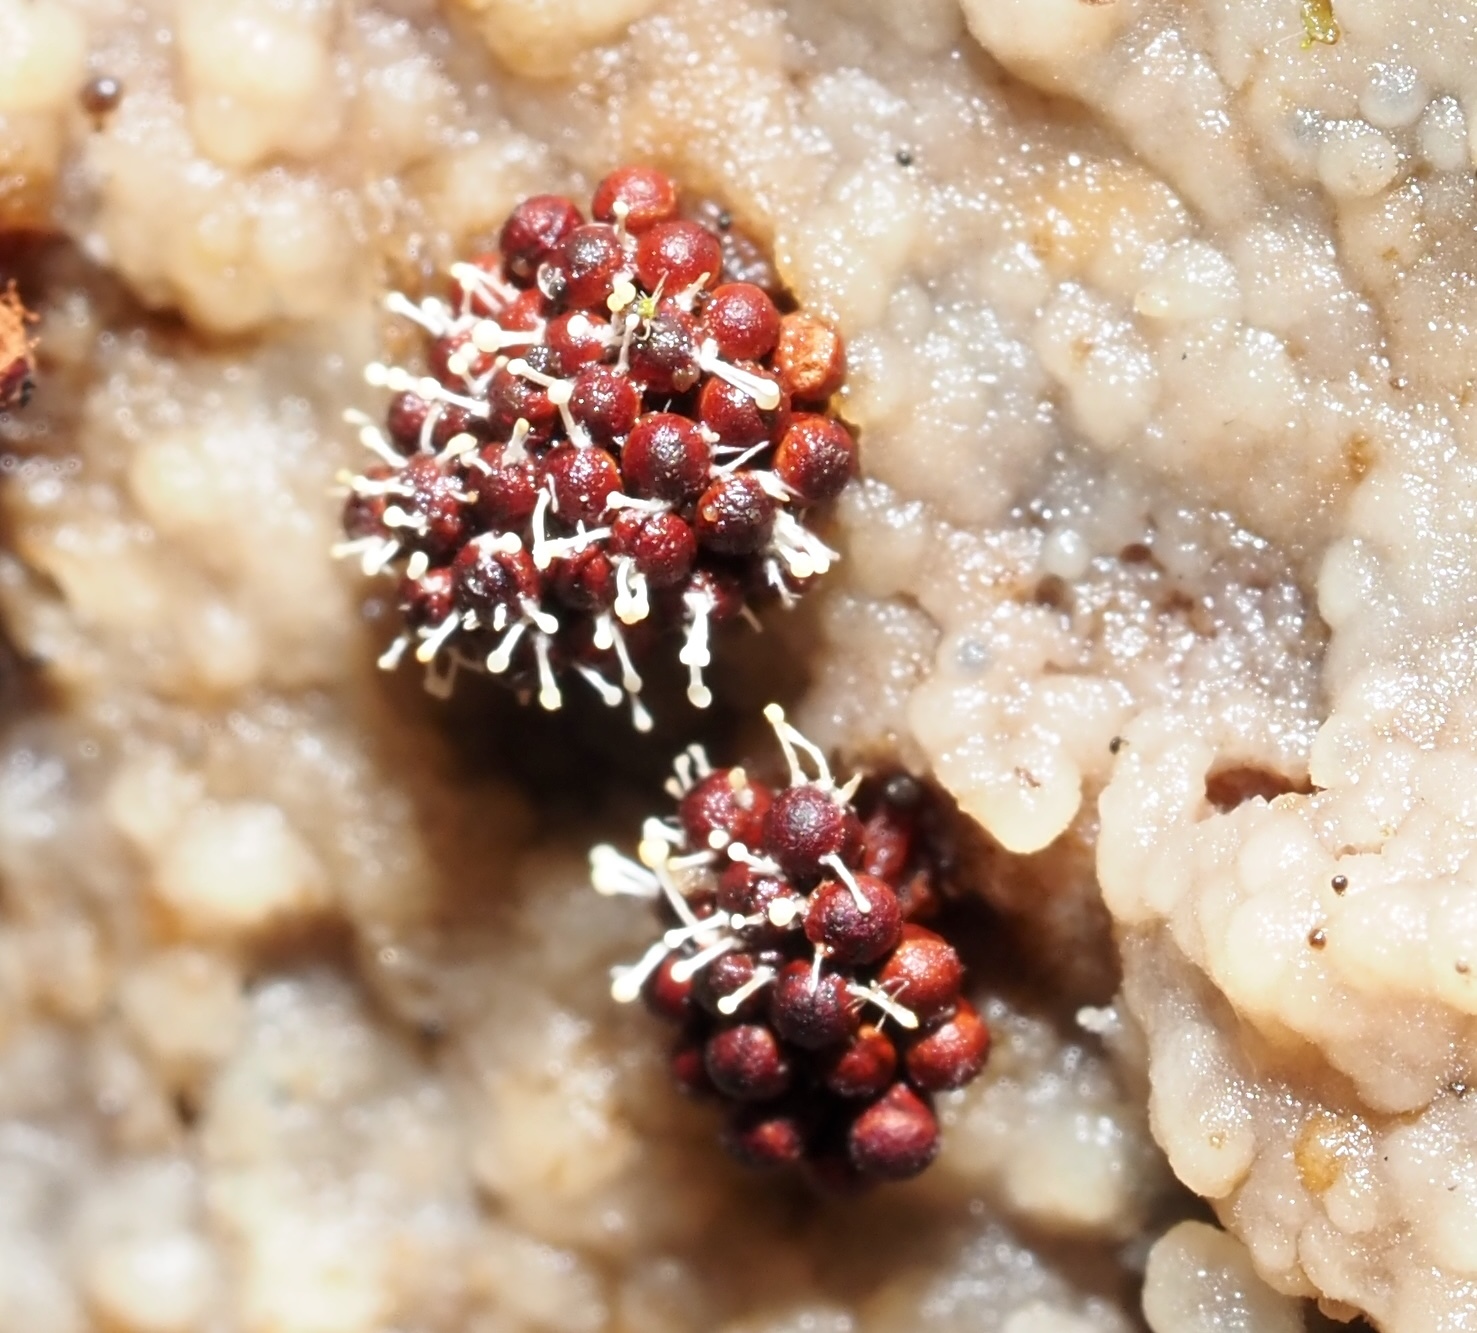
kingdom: Fungi
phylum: Ascomycota
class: Sordariomycetes
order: Hypocreales
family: Ophiocordycipitaceae
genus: Polycephalomyces
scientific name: Polycephalomyces tomentosus
